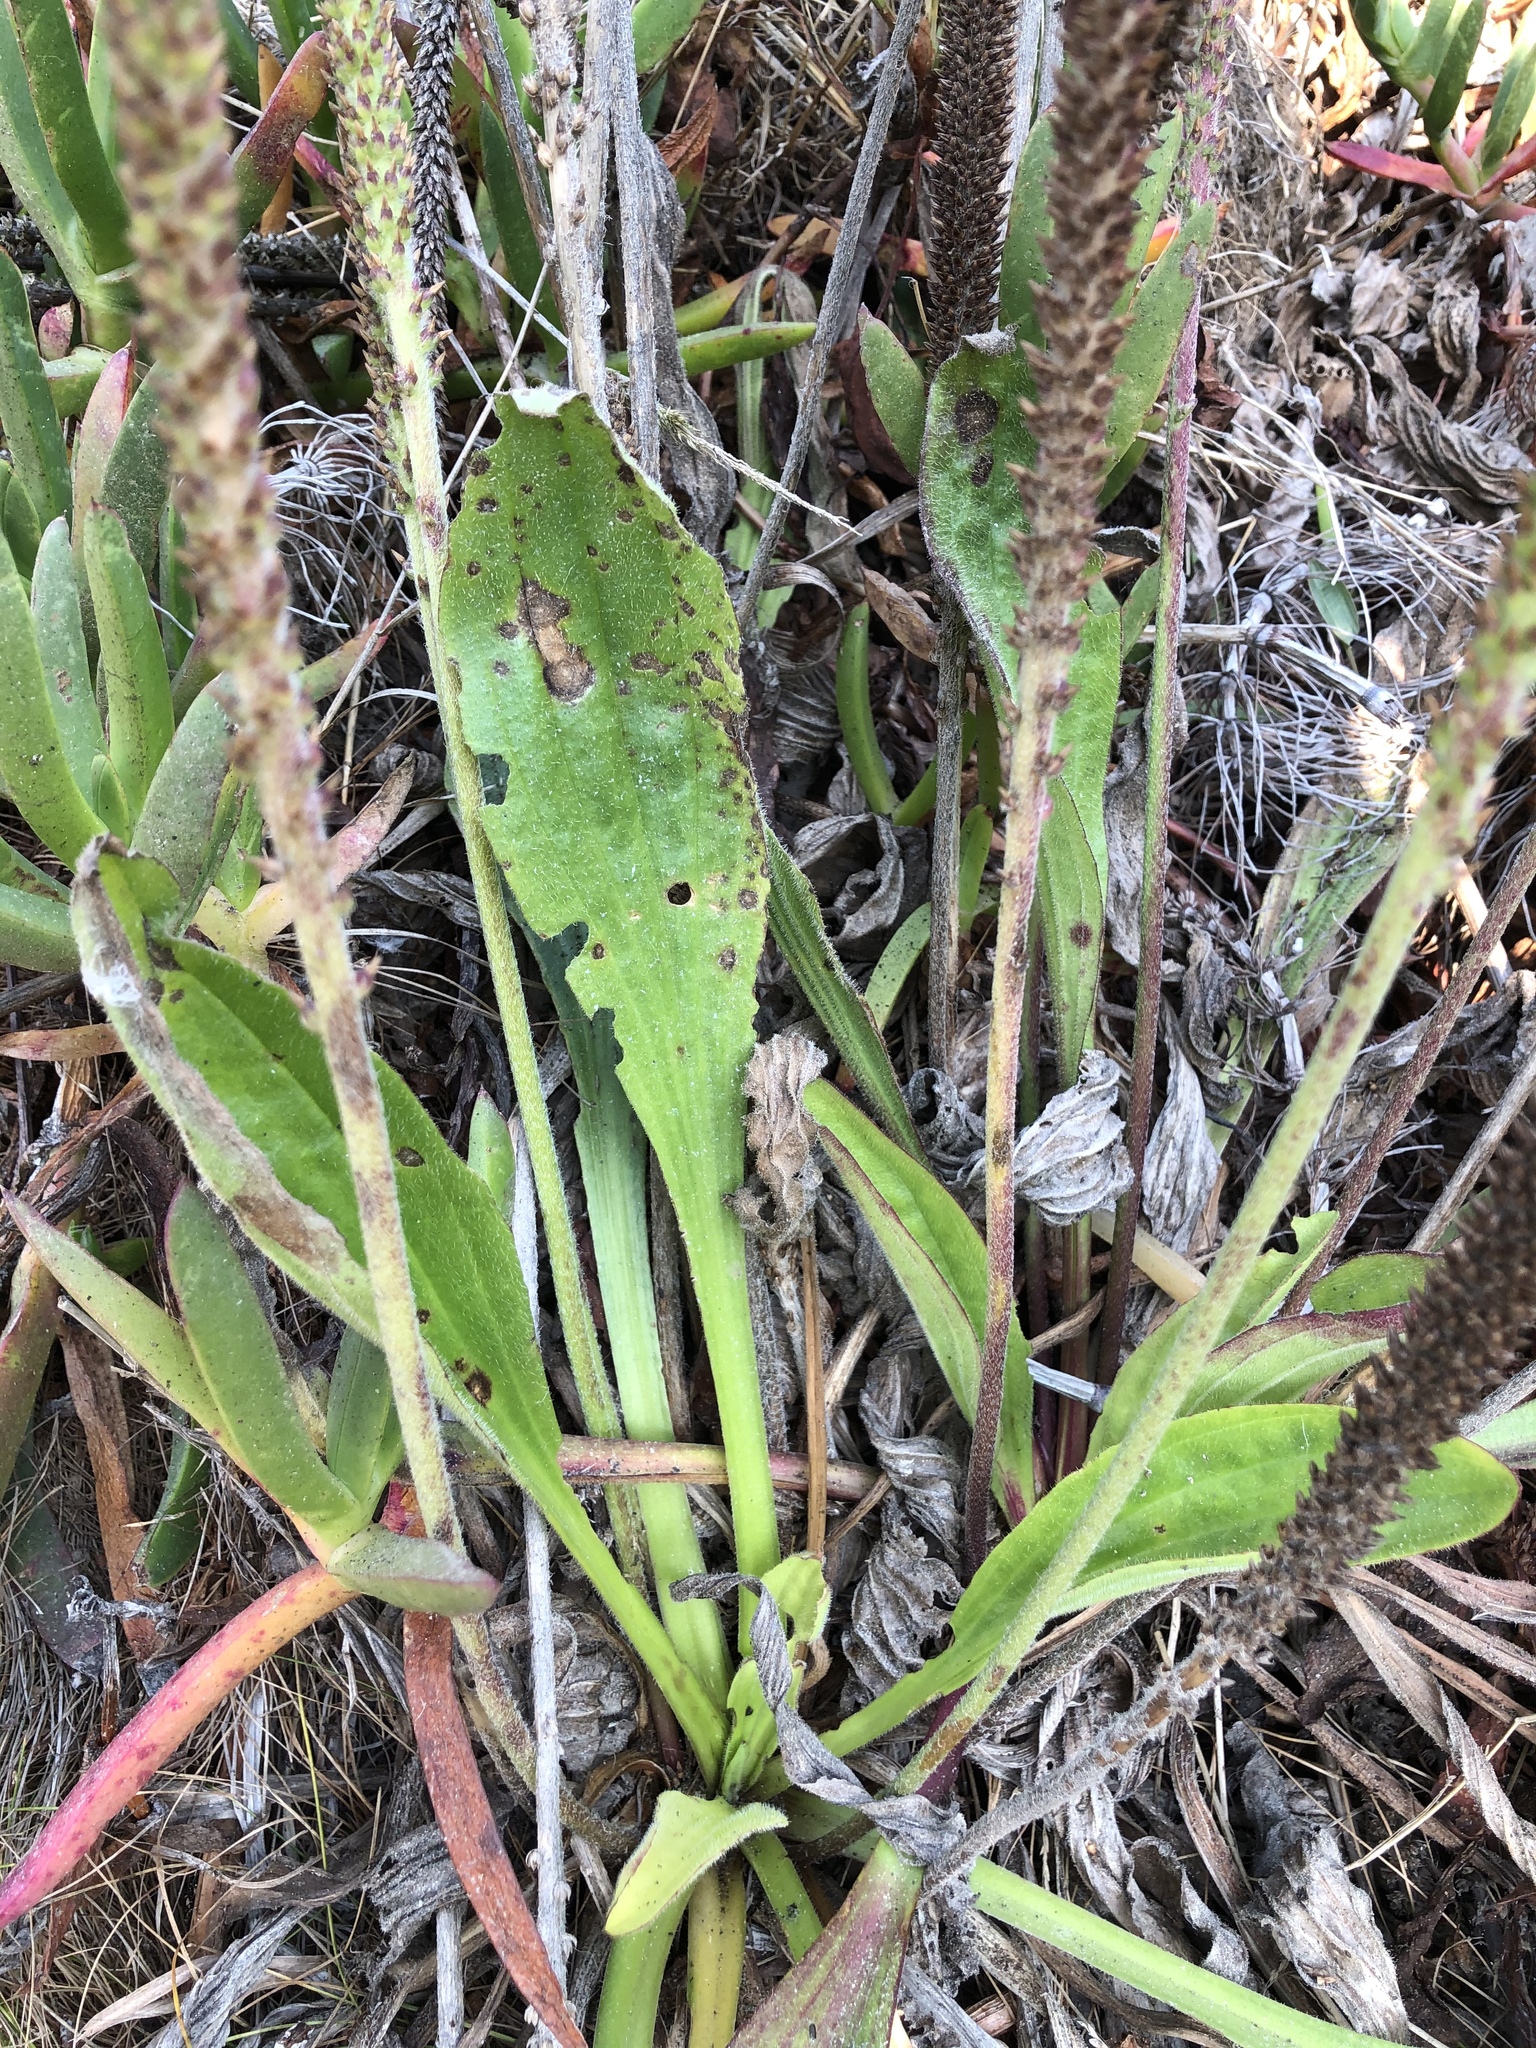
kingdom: Plantae
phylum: Tracheophyta
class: Magnoliopsida
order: Lamiales
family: Plantaginaceae
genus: Plantago
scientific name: Plantago subnuda
